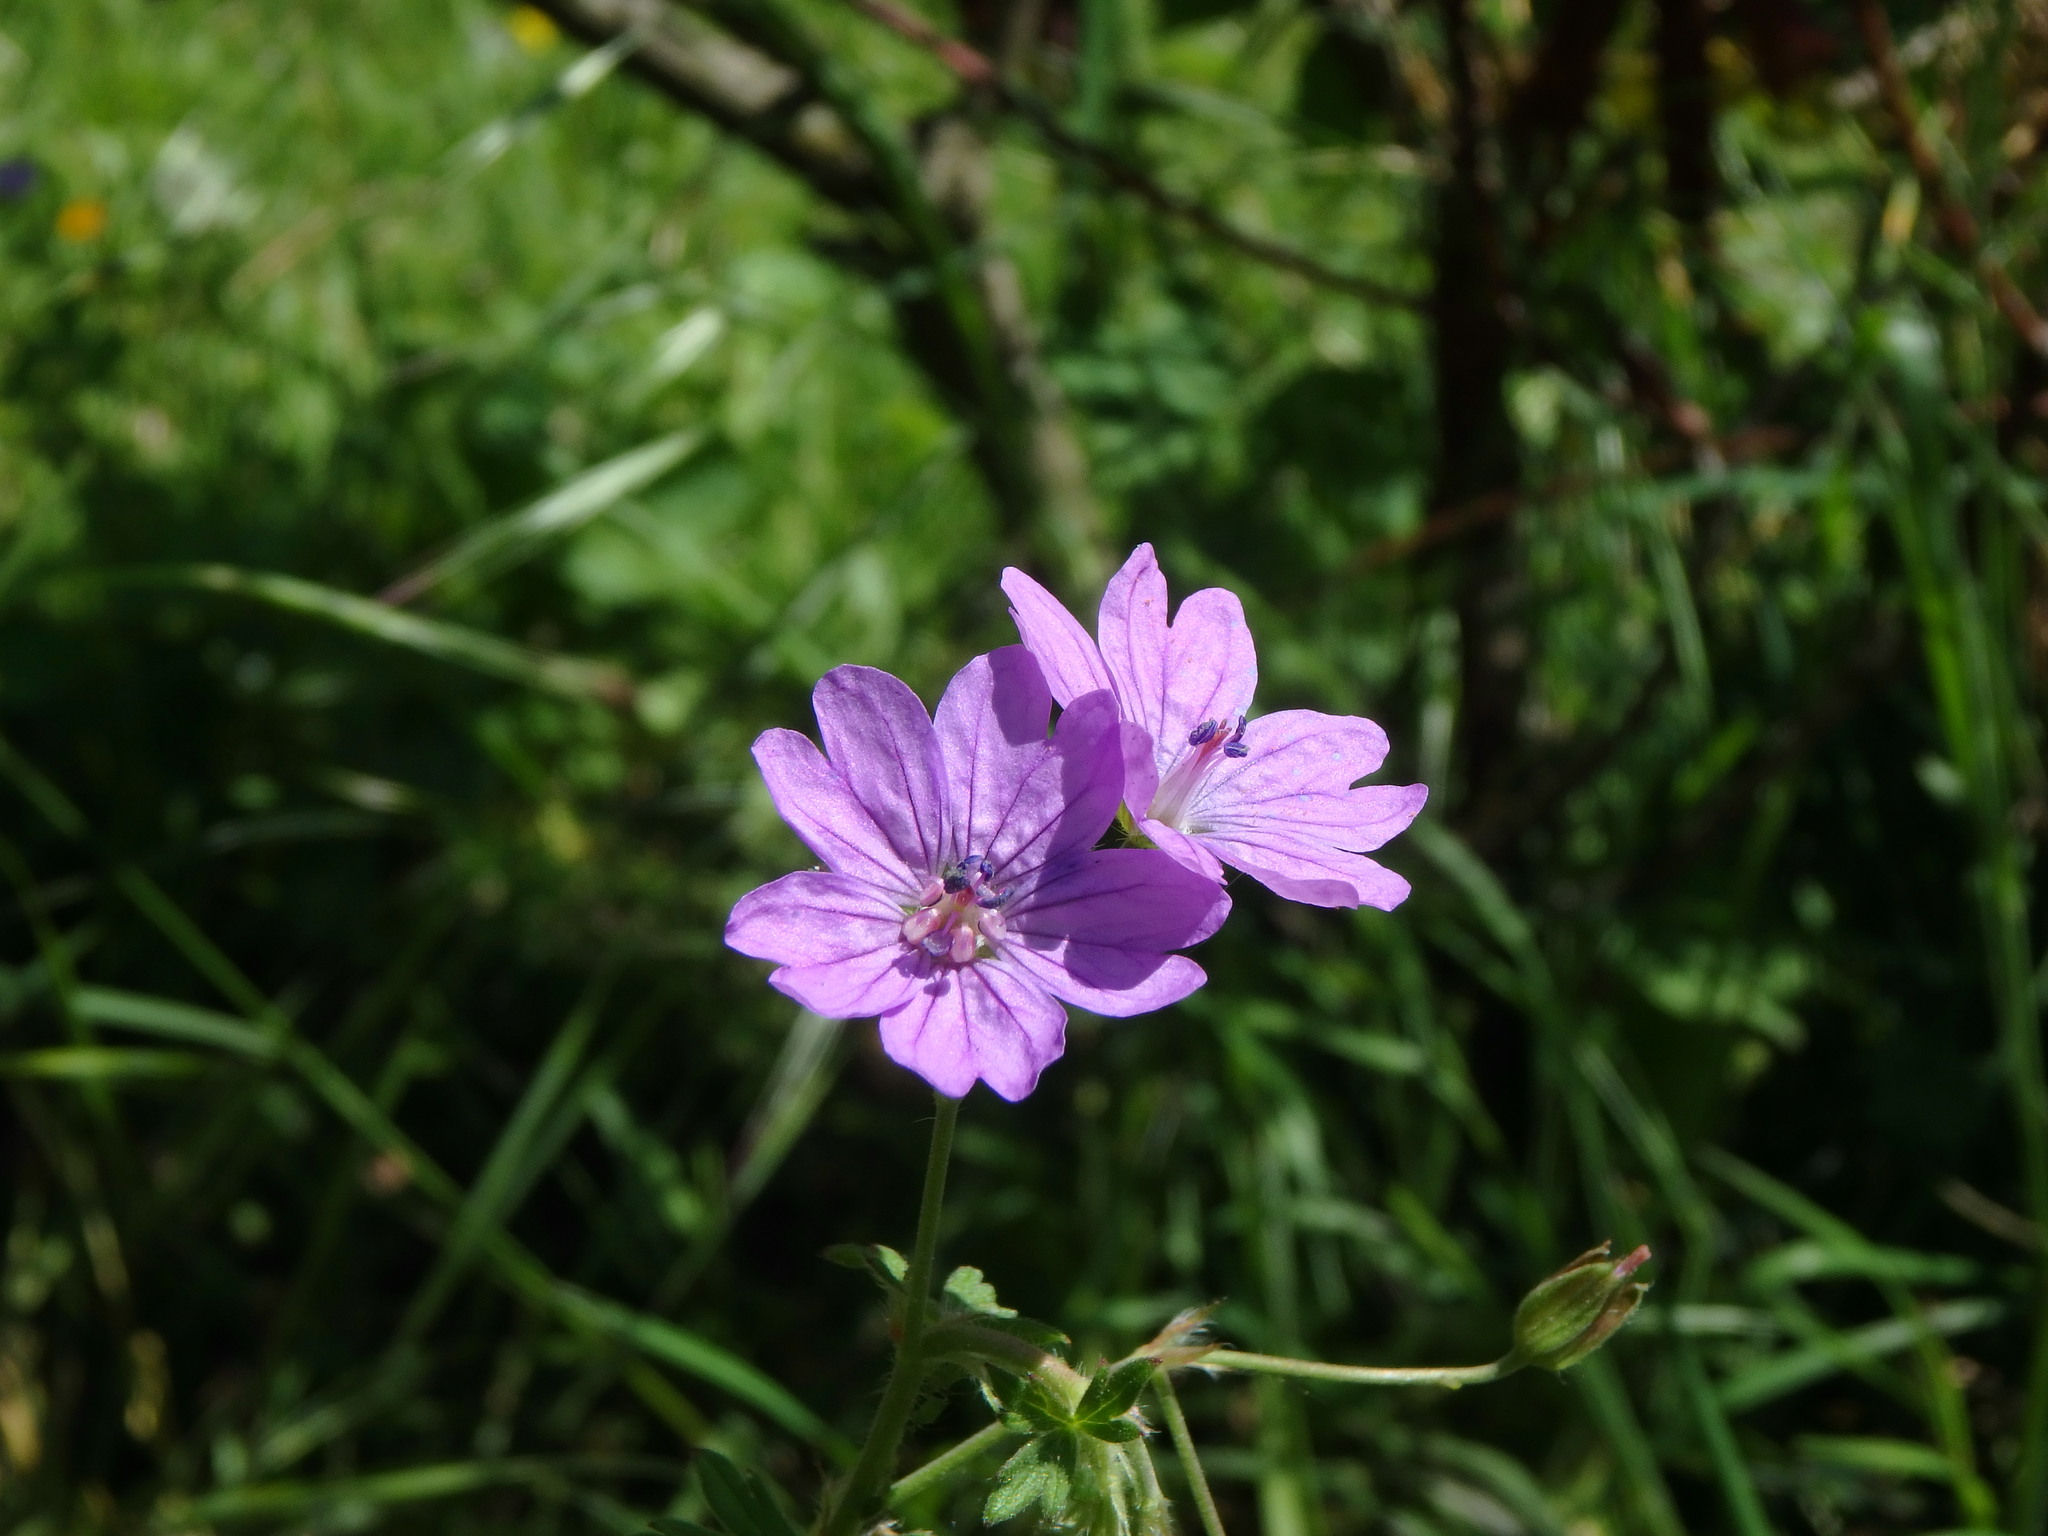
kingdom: Plantae
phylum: Tracheophyta
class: Magnoliopsida
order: Geraniales
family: Geraniaceae
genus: Geranium
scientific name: Geranium pyrenaicum
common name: Hedgerow crane's-bill
